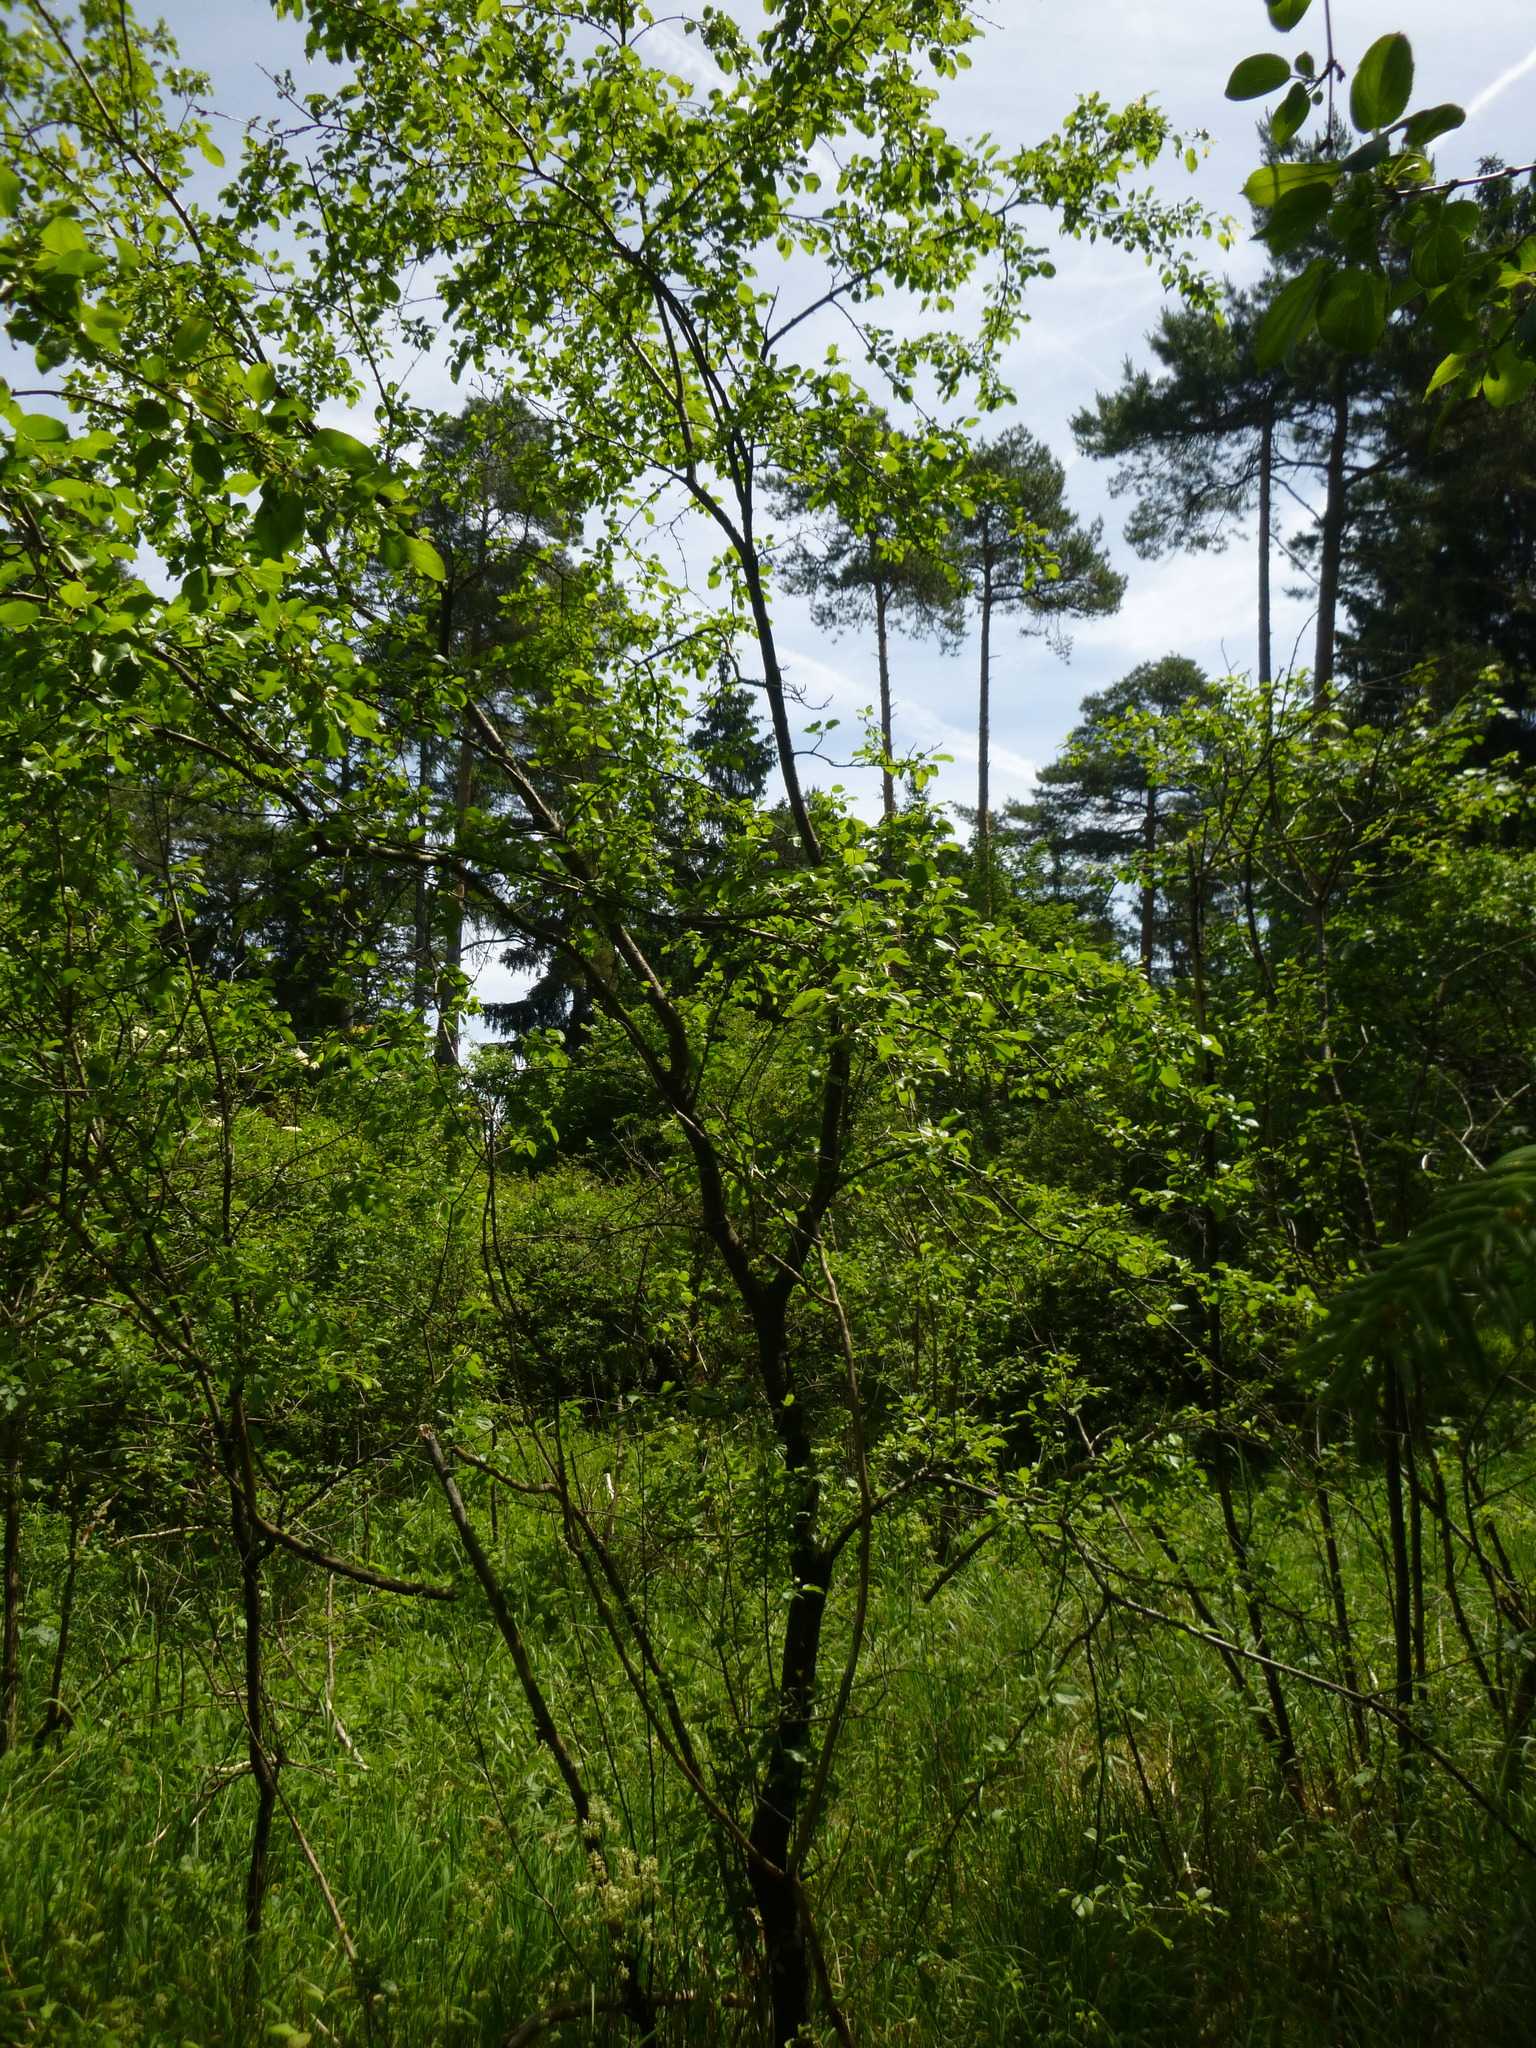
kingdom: Plantae
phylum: Tracheophyta
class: Magnoliopsida
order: Rosales
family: Rhamnaceae
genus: Rhamnus
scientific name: Rhamnus cathartica
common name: Common buckthorn
